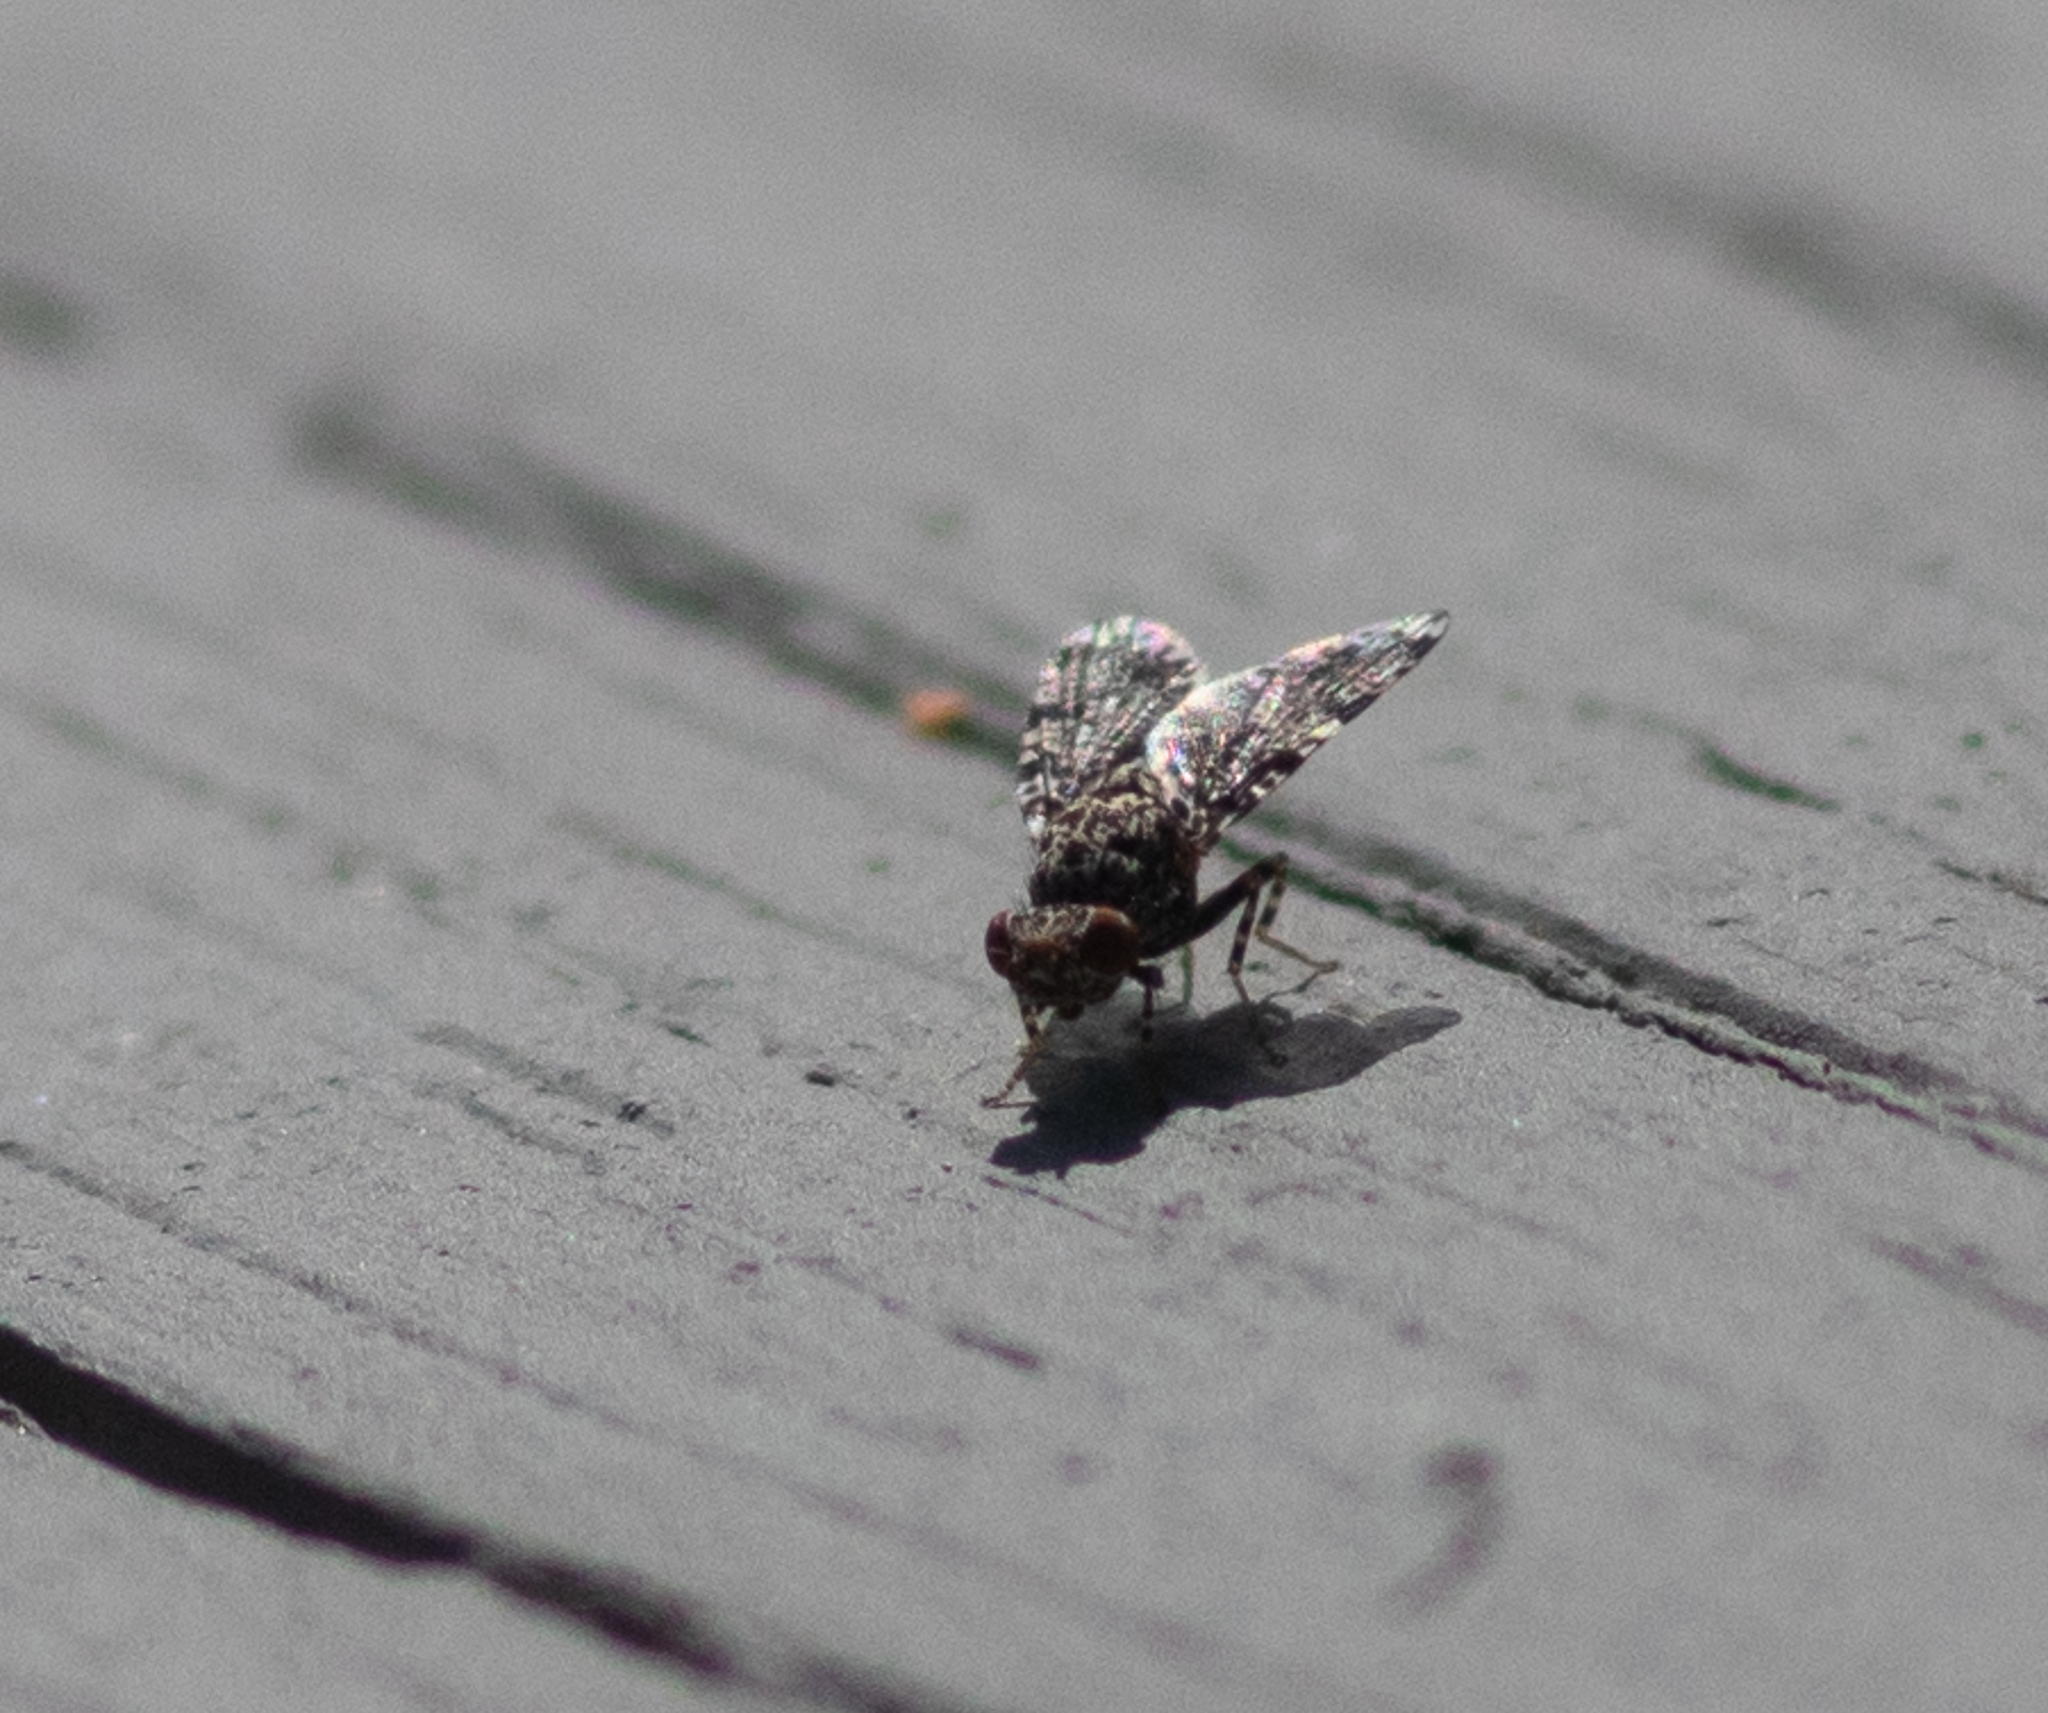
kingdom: Animalia
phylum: Arthropoda
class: Insecta
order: Diptera
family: Ulidiidae
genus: Callopistromyia
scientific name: Callopistromyia annulipes
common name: Peacock fly
